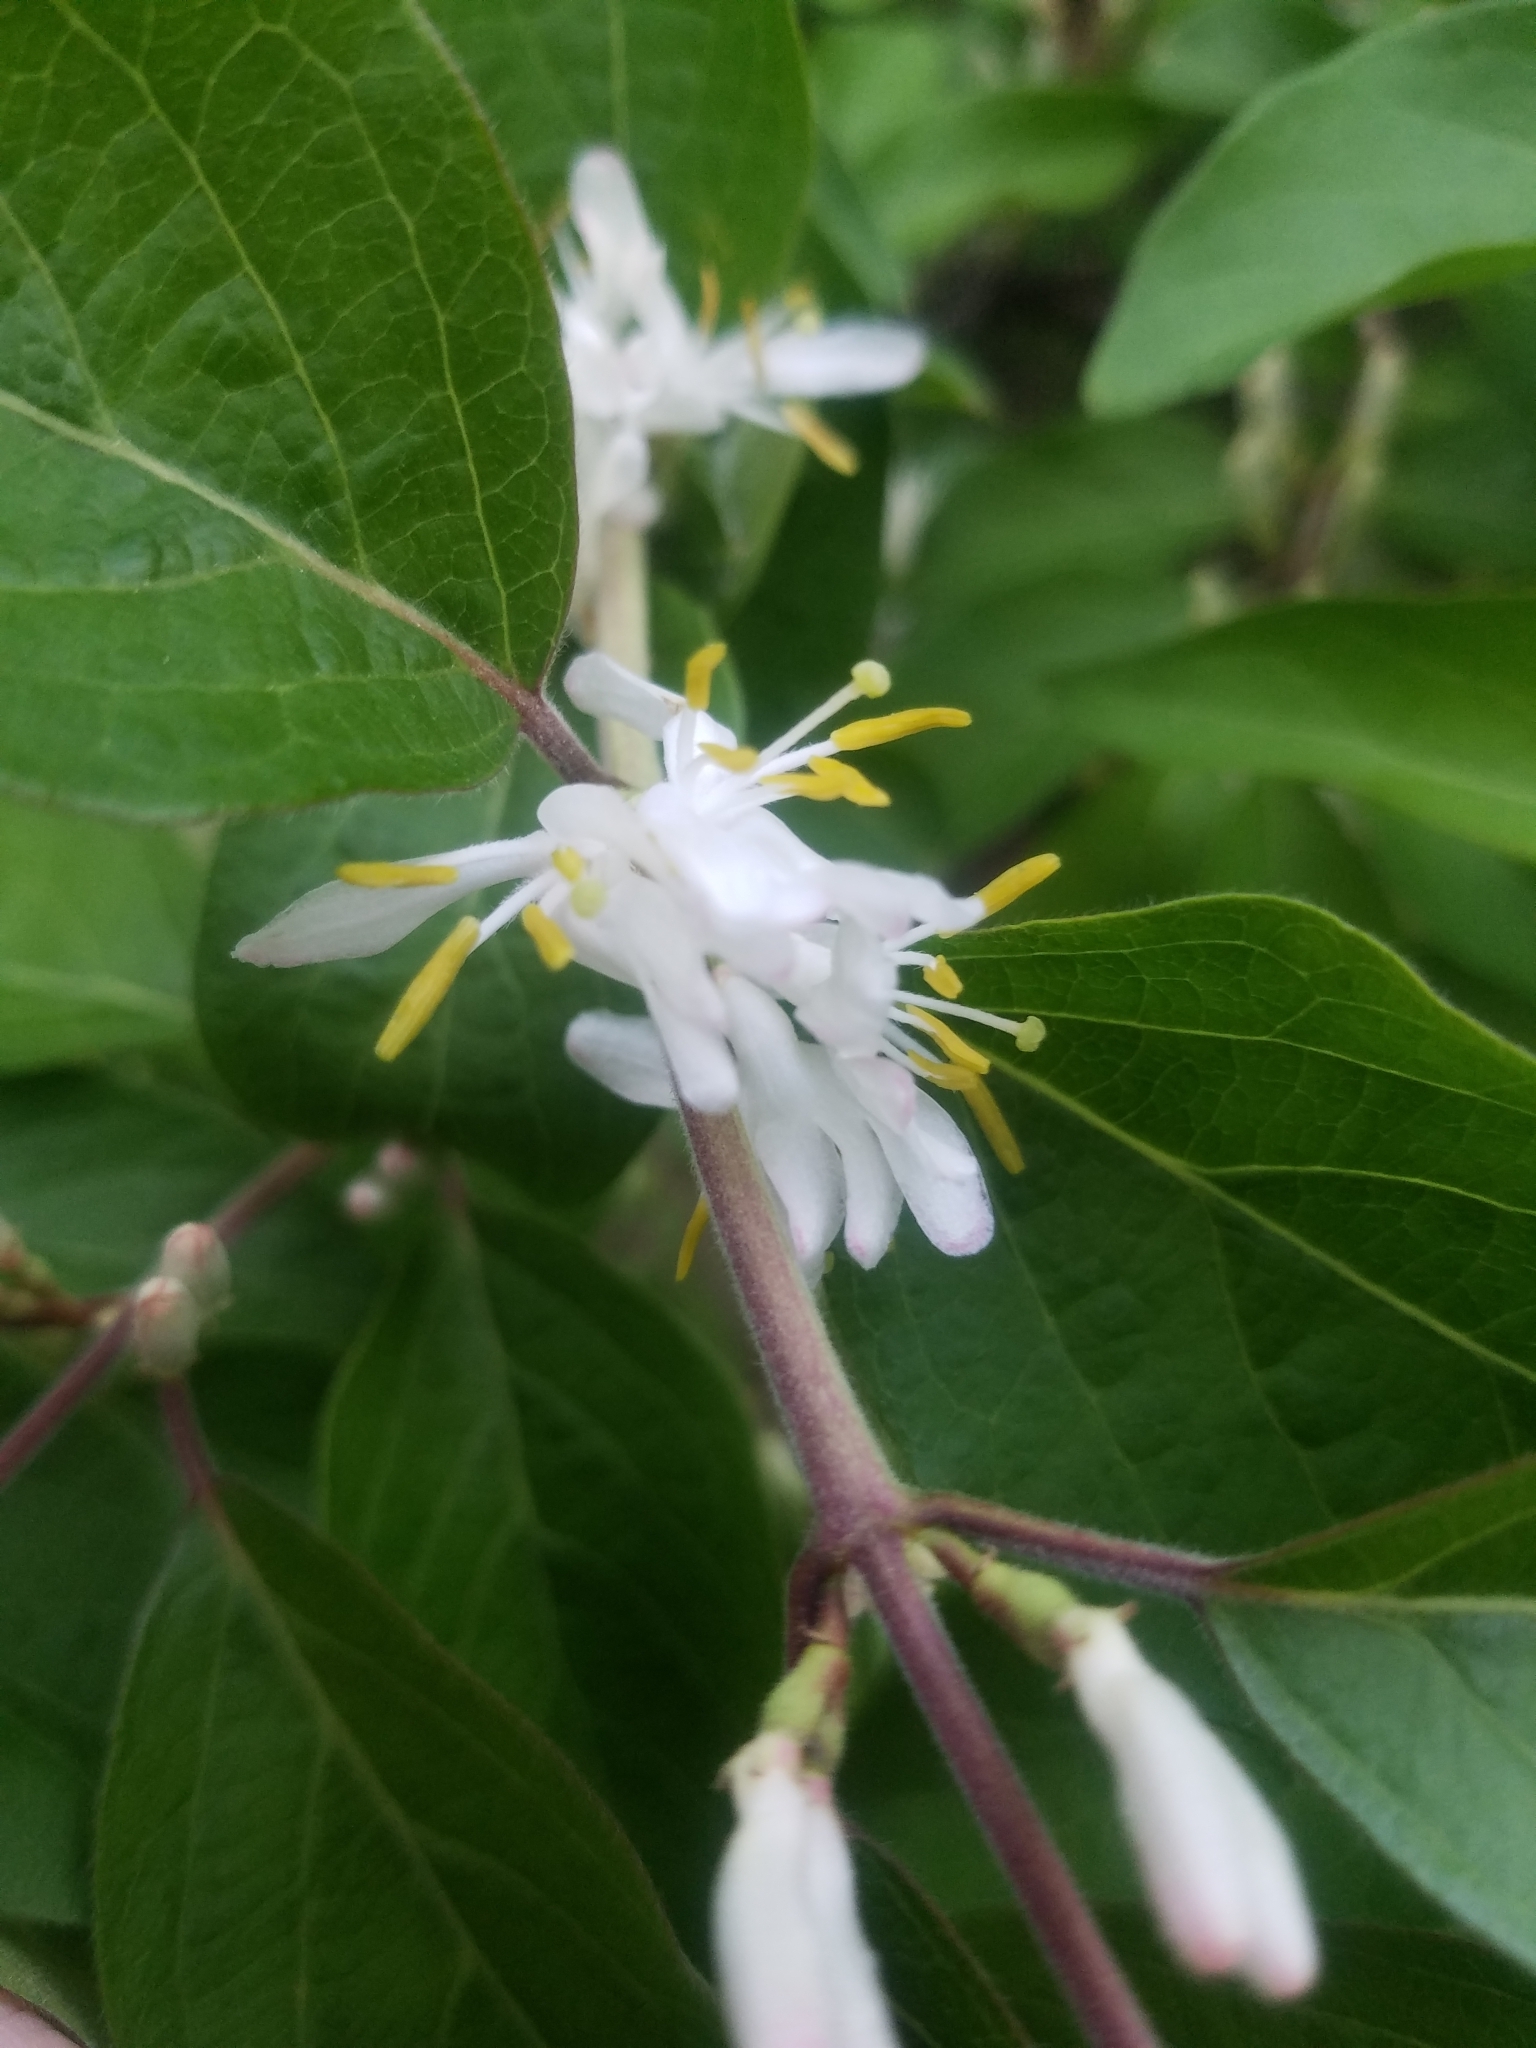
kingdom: Plantae
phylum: Tracheophyta
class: Magnoliopsida
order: Dipsacales
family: Caprifoliaceae
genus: Lonicera
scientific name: Lonicera maackii
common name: Amur honeysuckle
